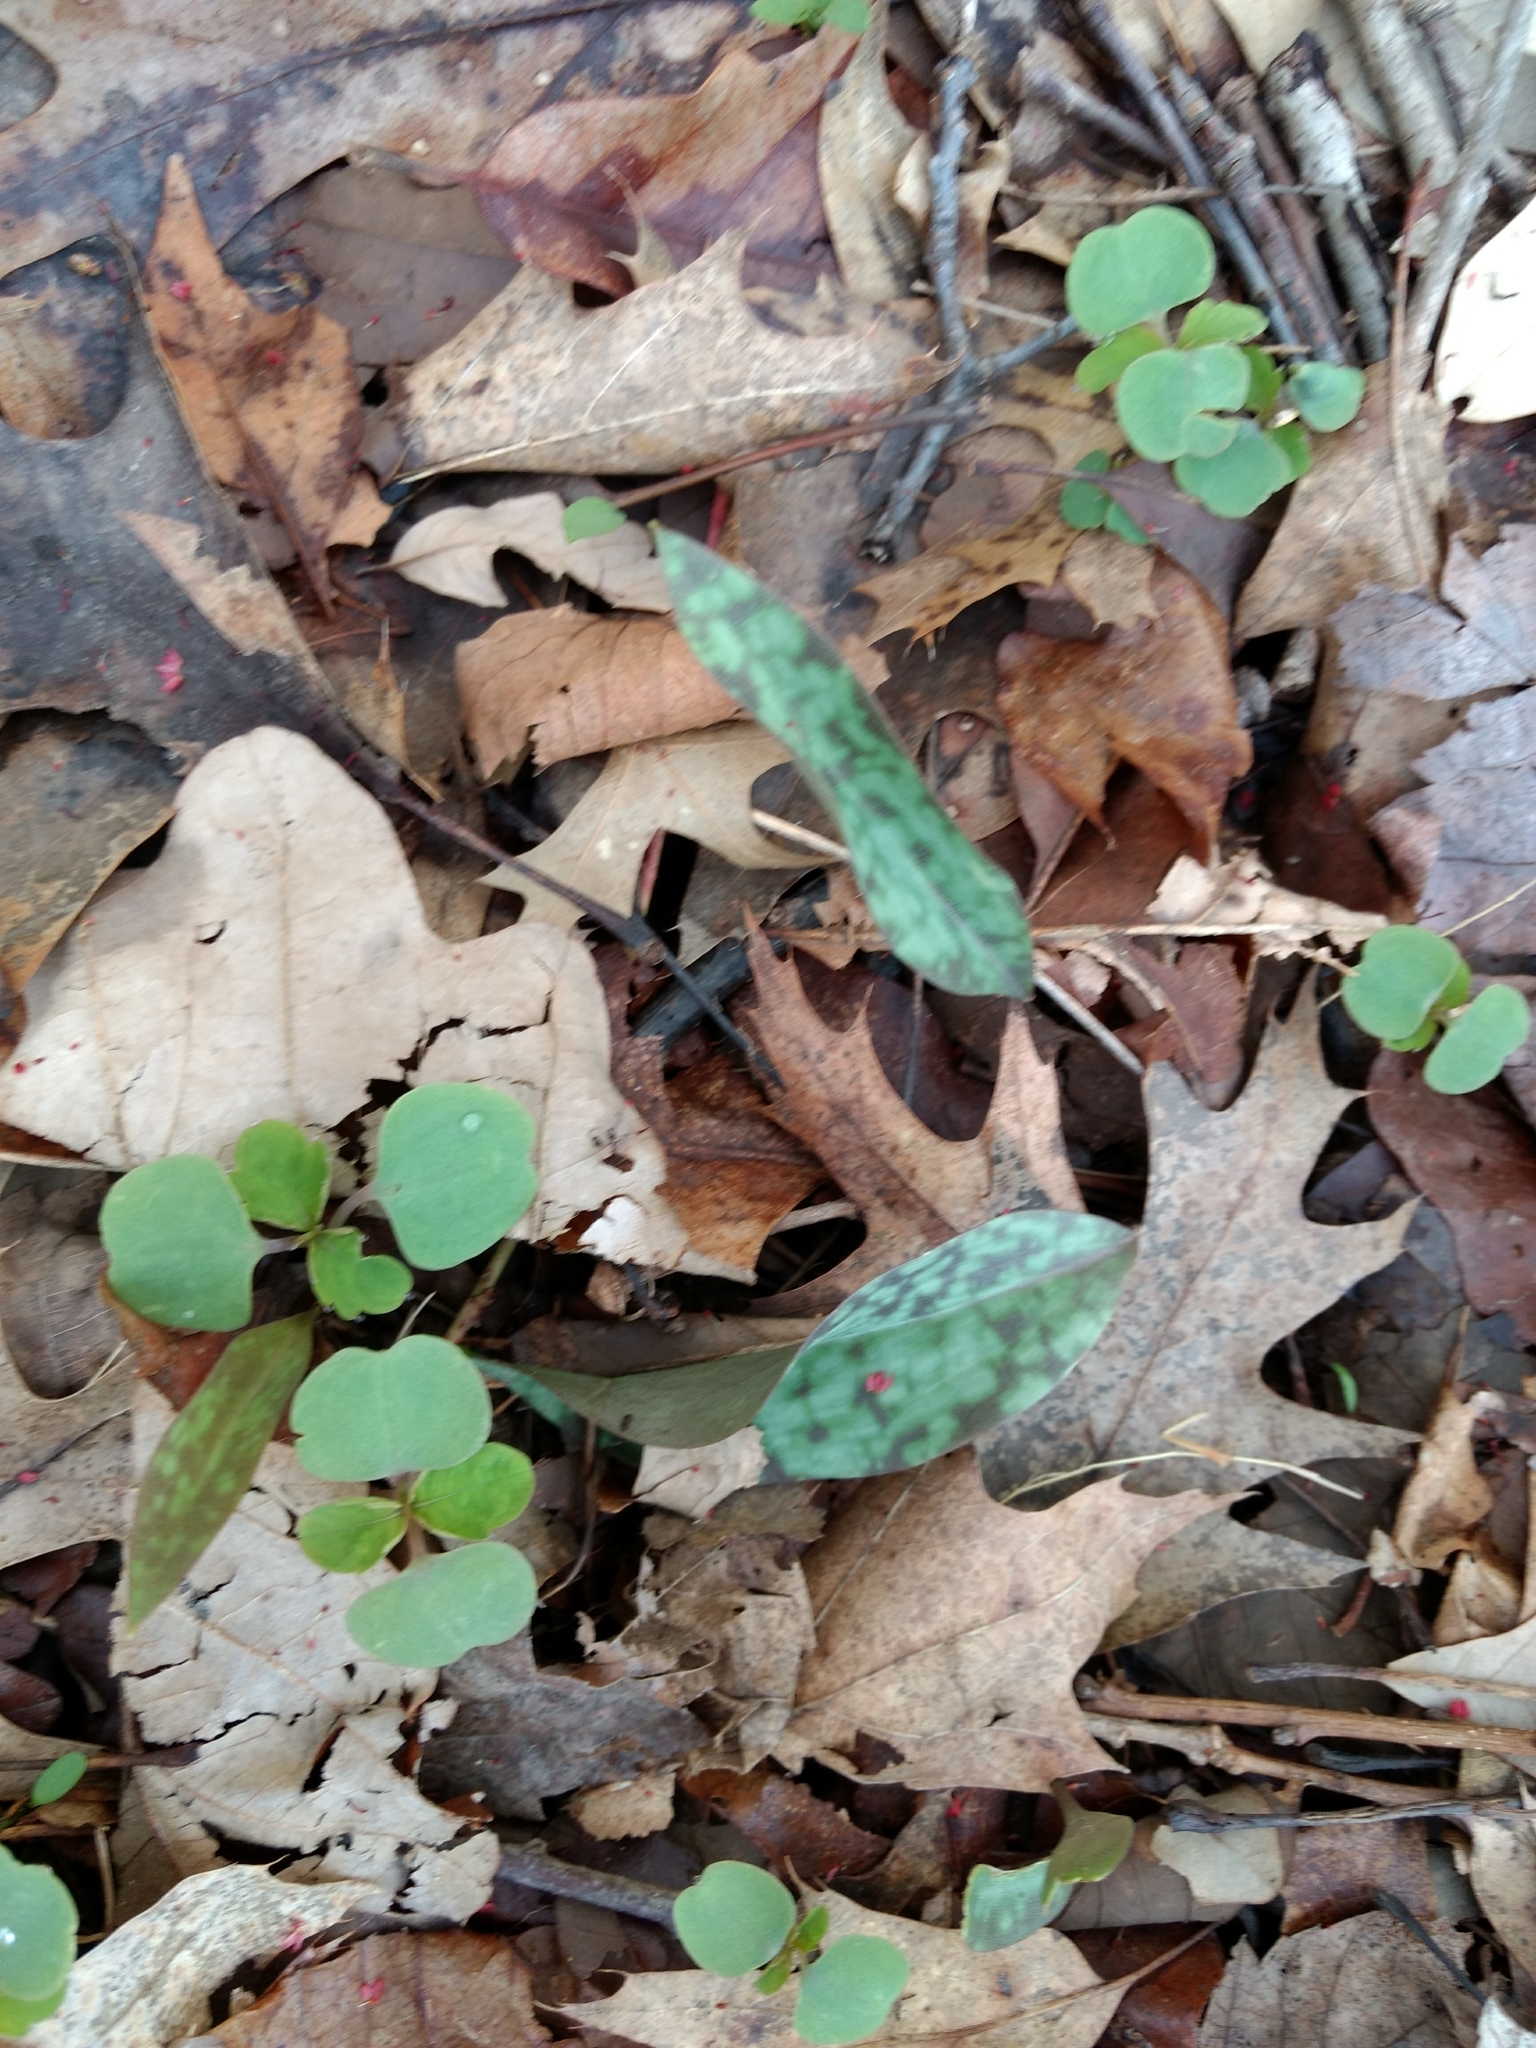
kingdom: Plantae
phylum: Tracheophyta
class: Liliopsida
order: Liliales
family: Liliaceae
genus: Erythronium
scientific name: Erythronium americanum
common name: Yellow adder's-tongue
